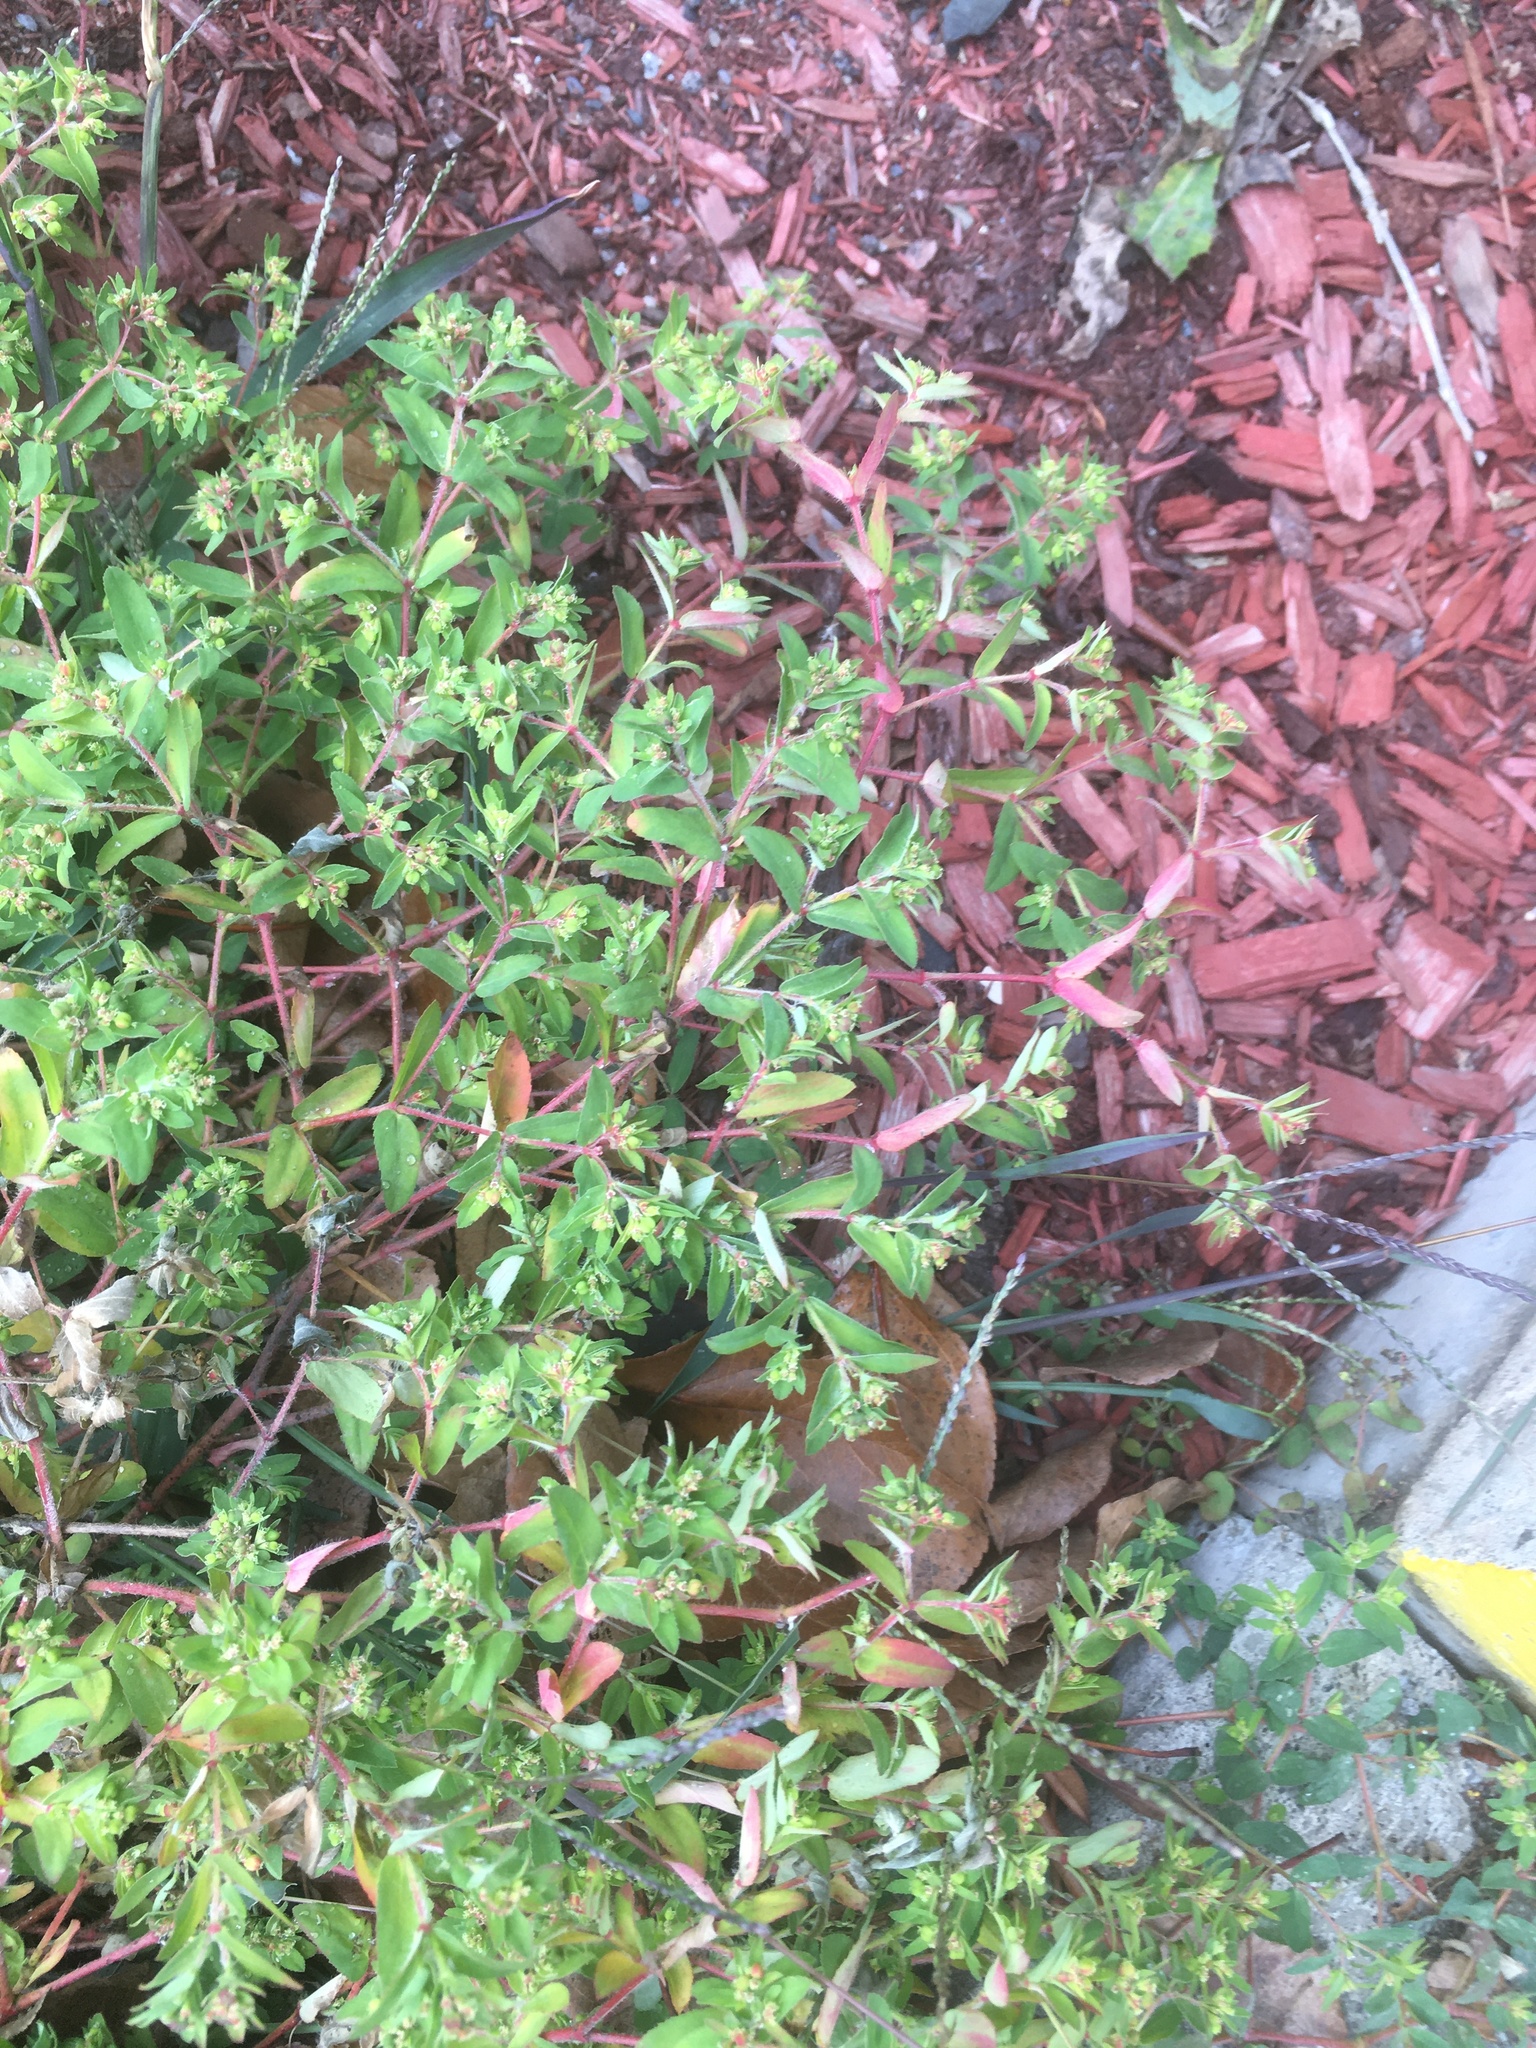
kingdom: Plantae
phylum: Tracheophyta
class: Magnoliopsida
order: Malpighiales
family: Euphorbiaceae
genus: Euphorbia
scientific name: Euphorbia vermiculata
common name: Hairy spurge
